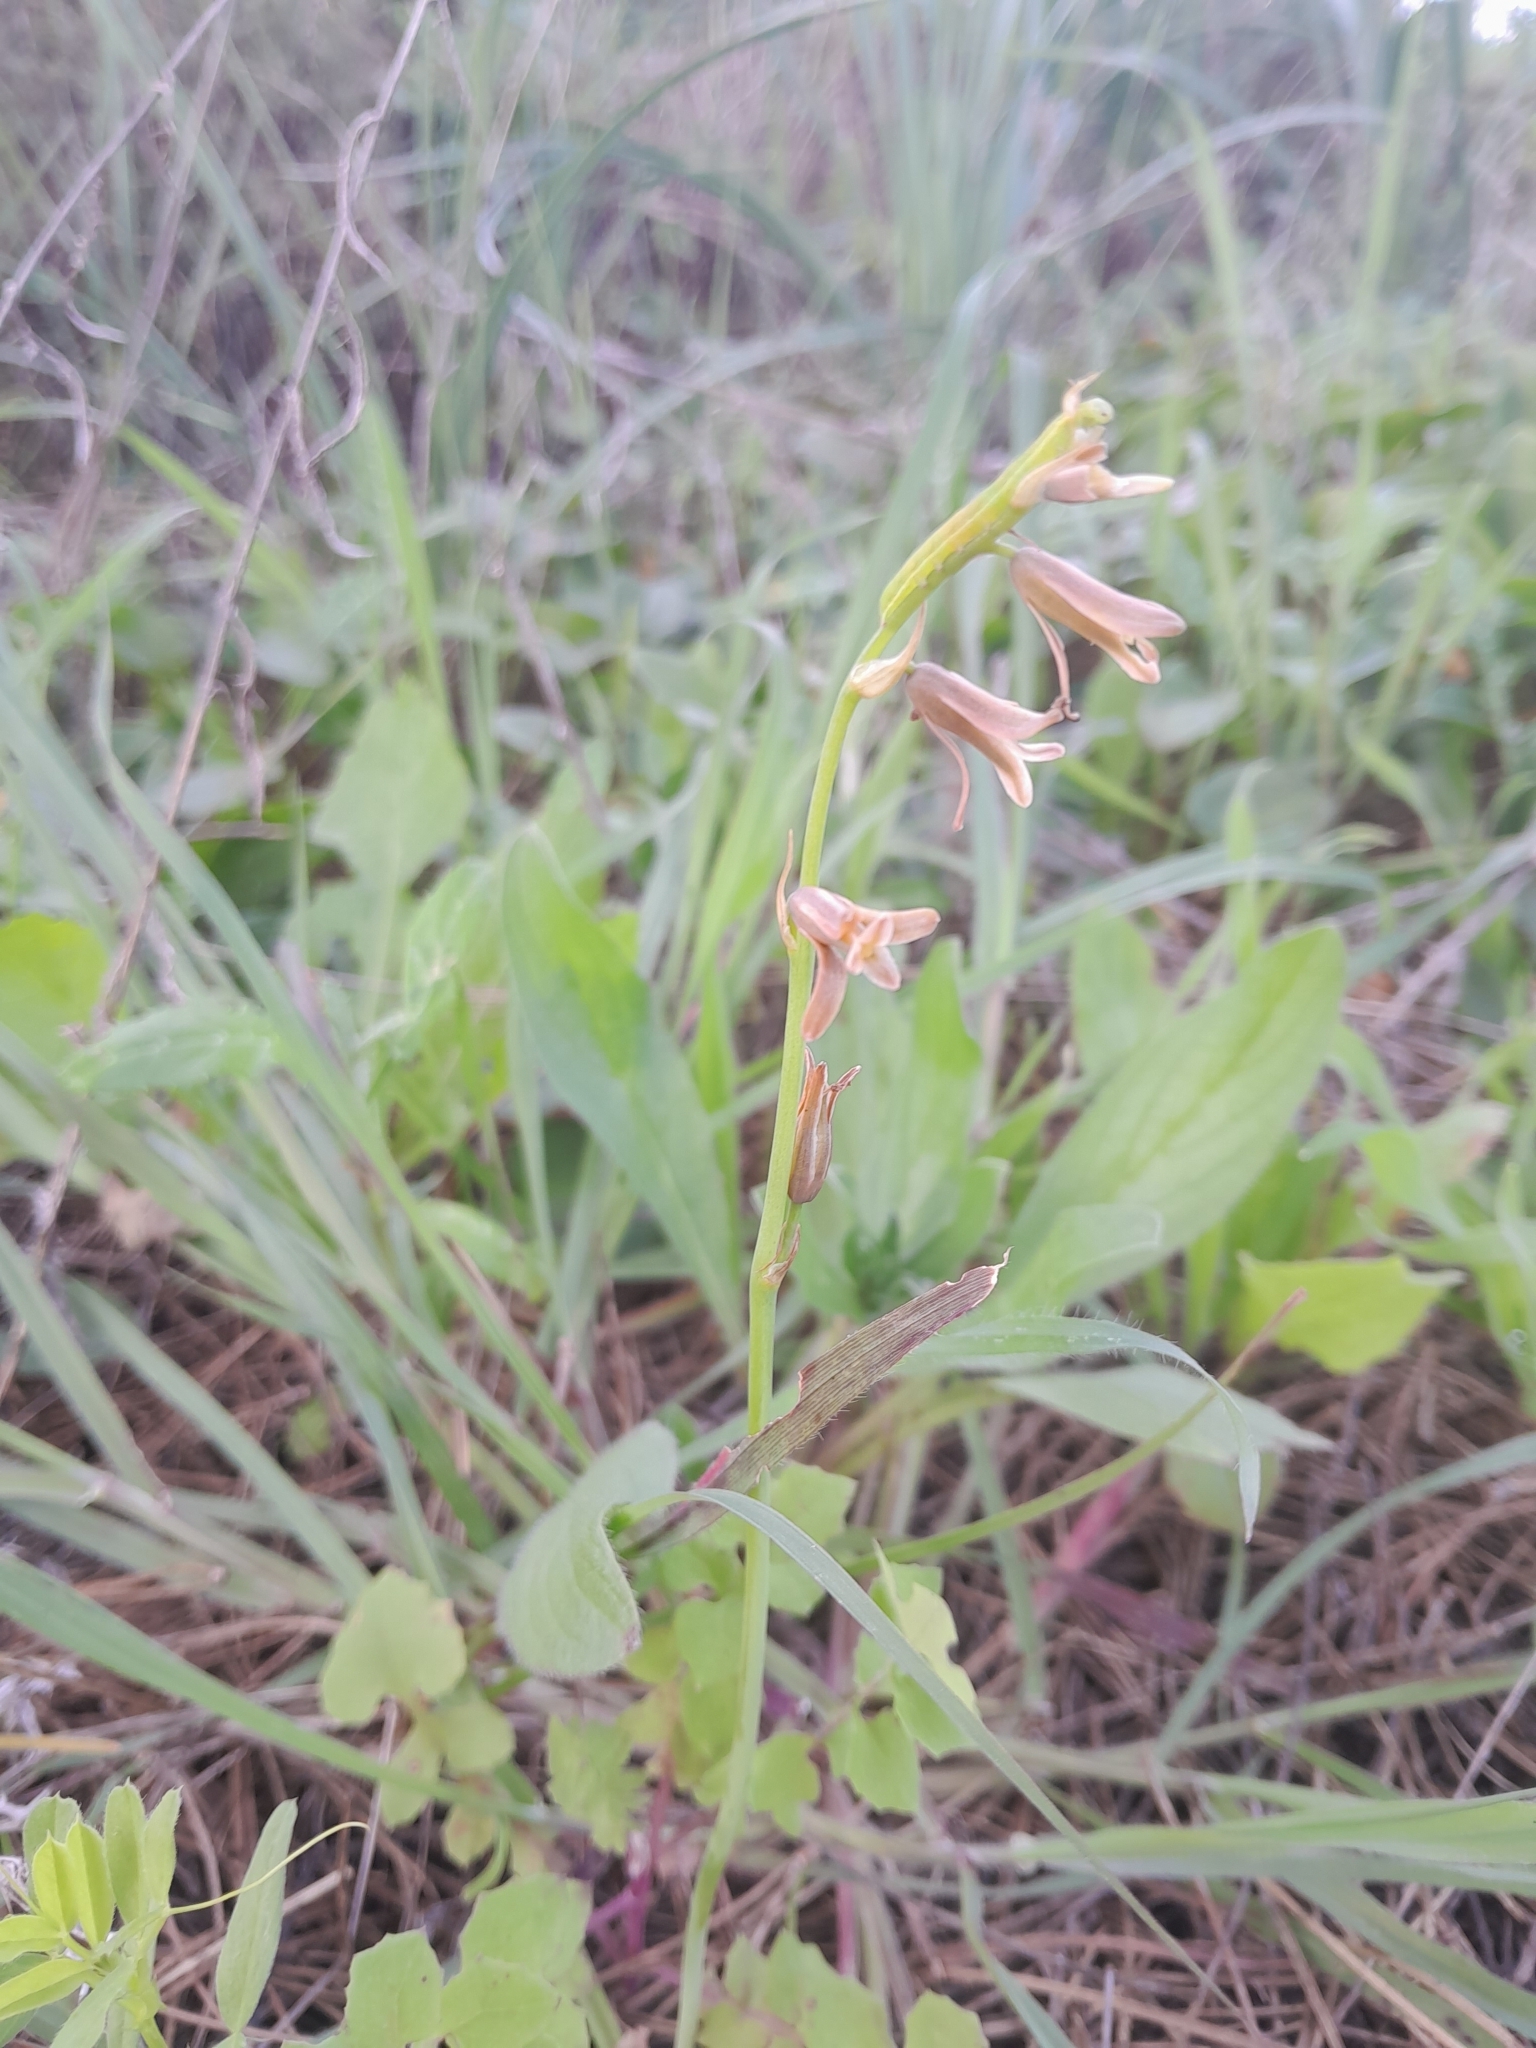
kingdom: Plantae
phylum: Tracheophyta
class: Liliopsida
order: Asparagales
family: Asparagaceae
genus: Dipcadi
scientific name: Dipcadi serotinum
